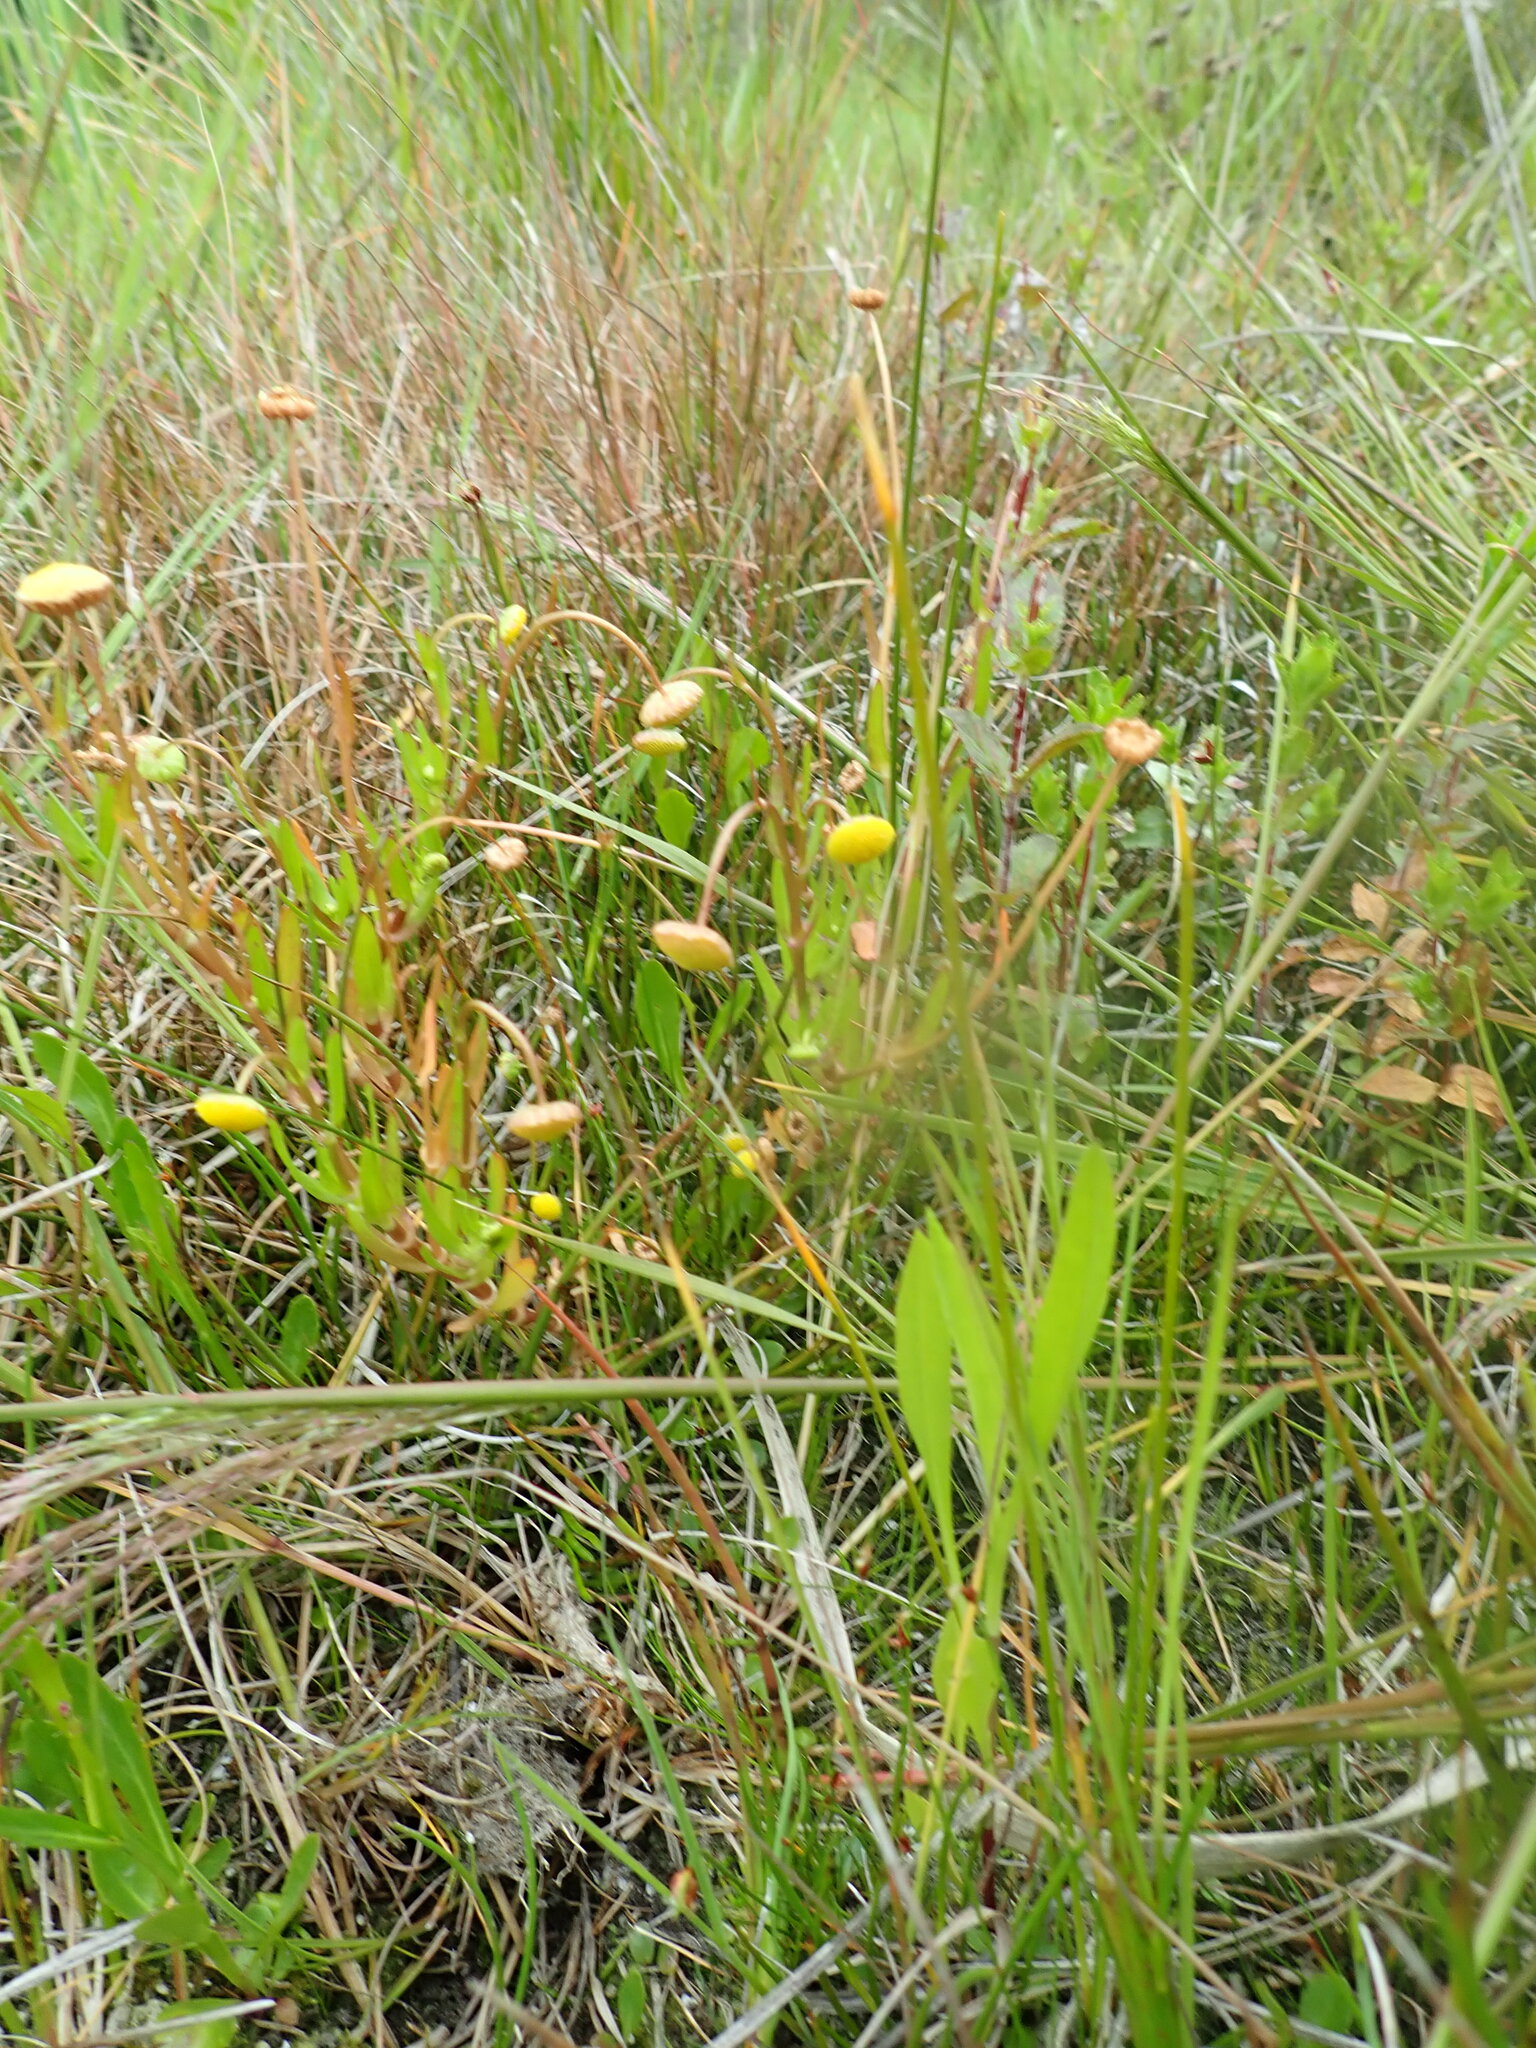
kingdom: Plantae
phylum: Tracheophyta
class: Magnoliopsida
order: Asterales
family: Asteraceae
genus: Cotula
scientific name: Cotula coronopifolia
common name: Buttonweed
